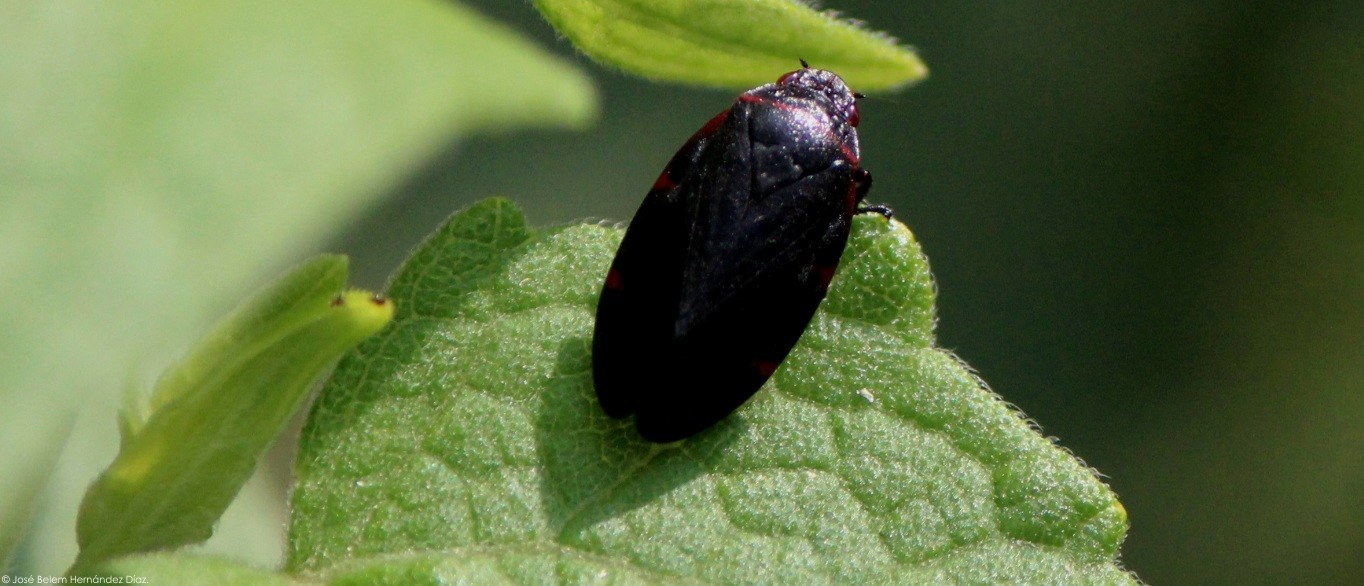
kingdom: Animalia
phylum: Arthropoda
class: Insecta
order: Hemiptera
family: Cercopidae
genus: Prosapia
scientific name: Prosapia
